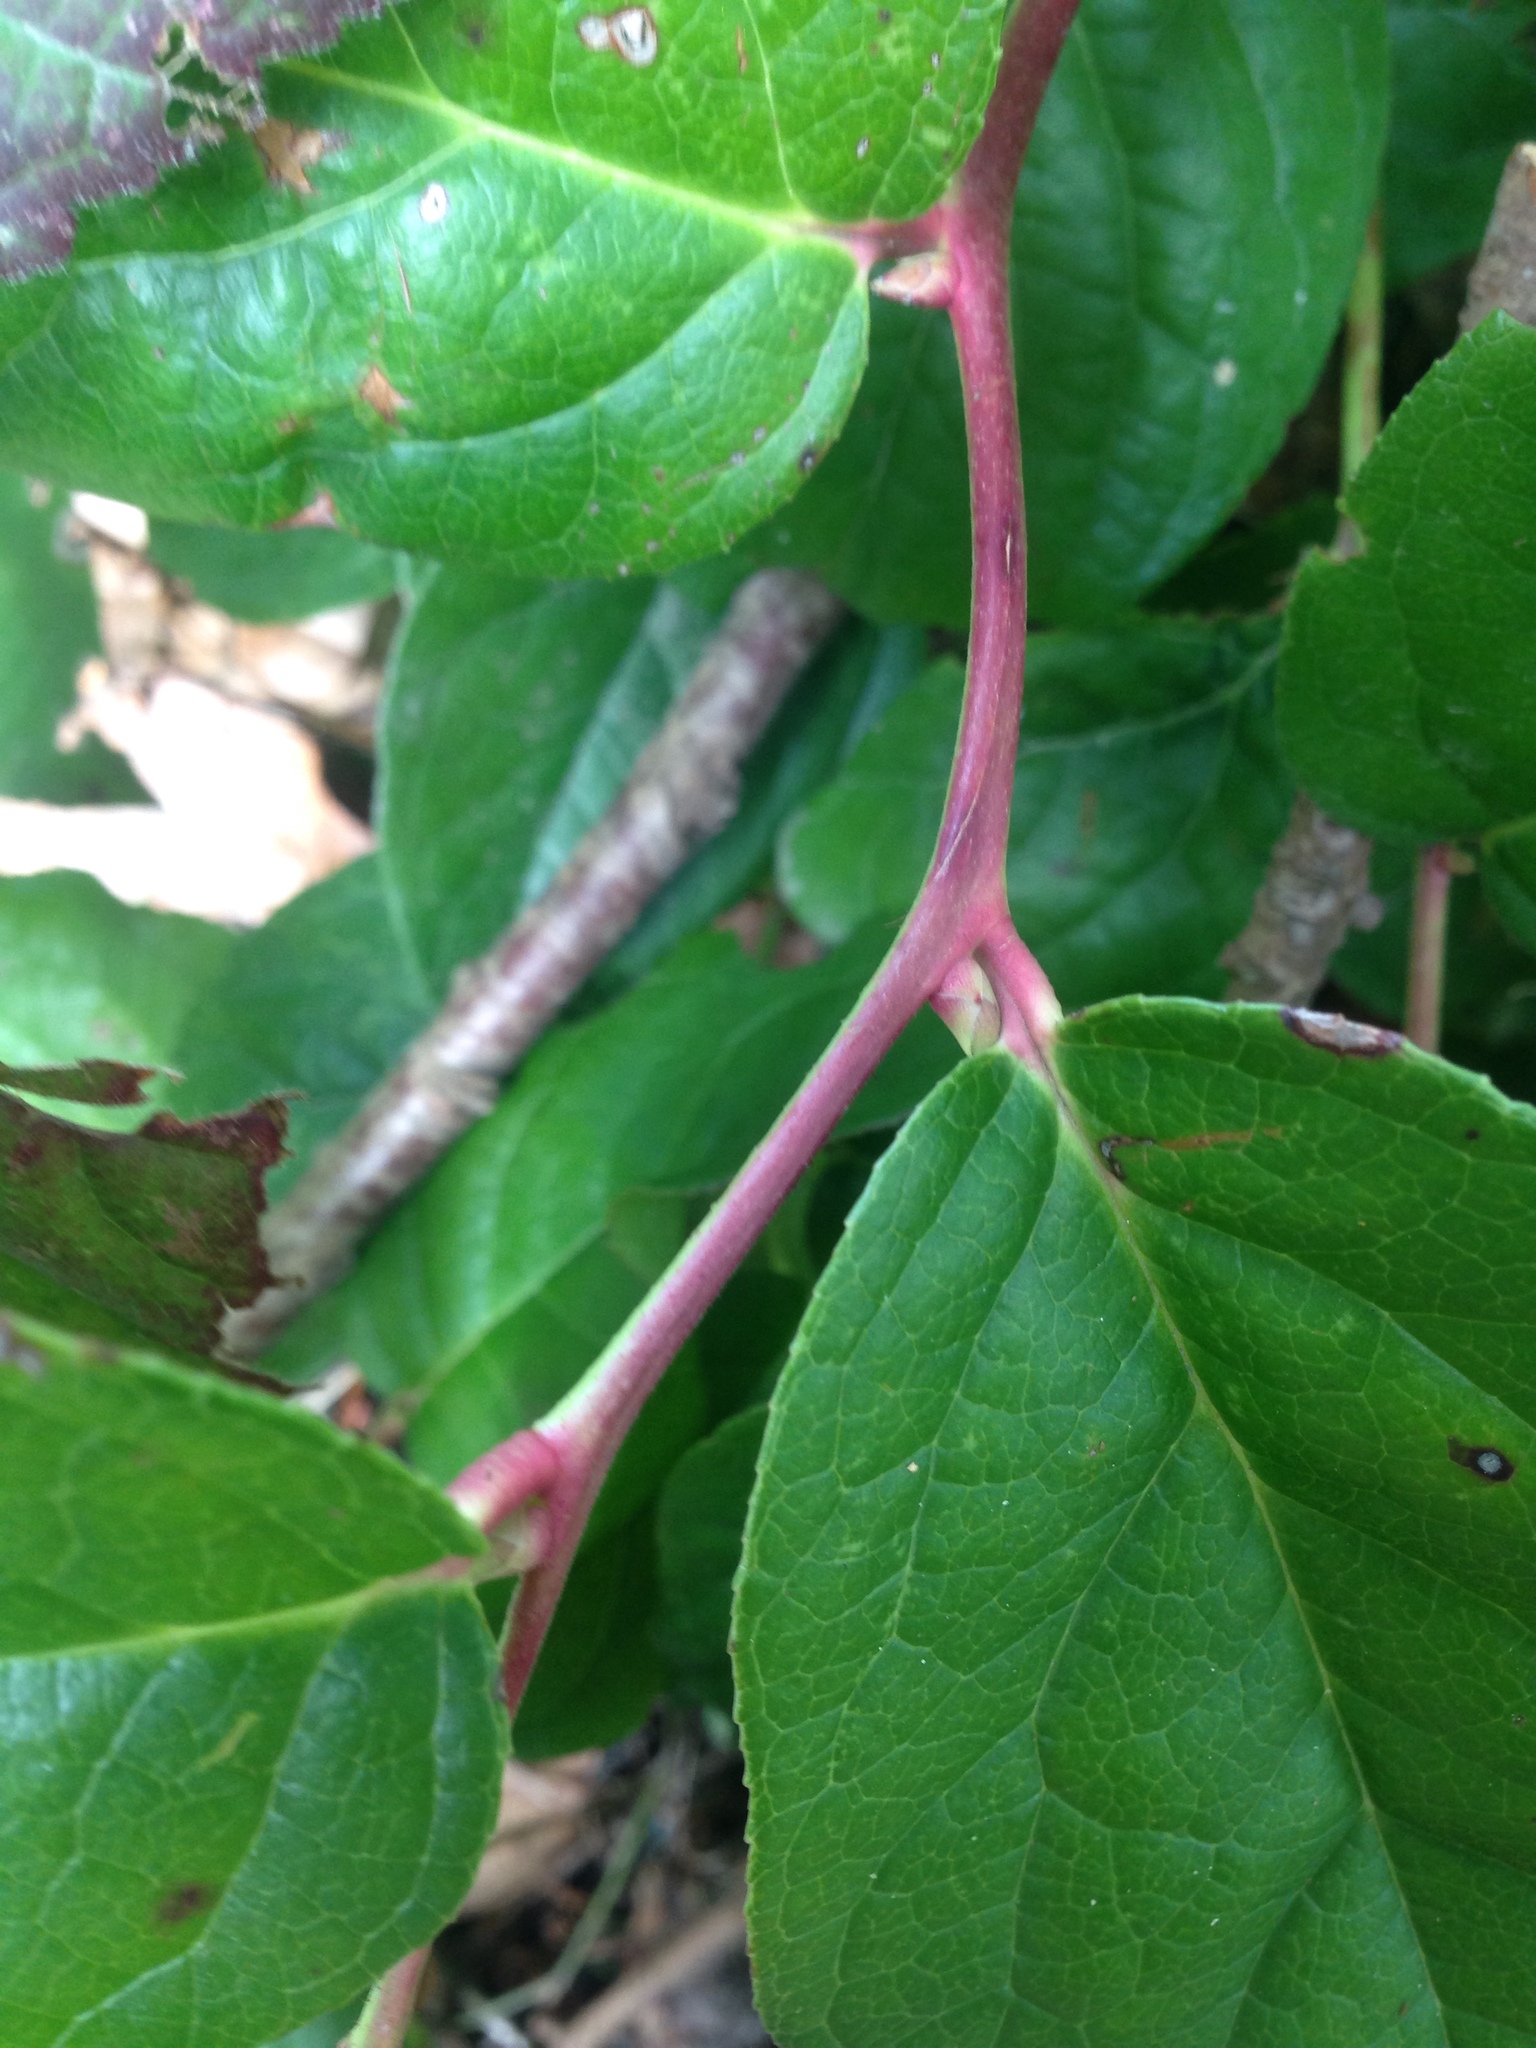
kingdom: Plantae
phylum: Tracheophyta
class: Magnoliopsida
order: Ericales
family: Ericaceae
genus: Gaultheria
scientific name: Gaultheria shallon
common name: Shallon
